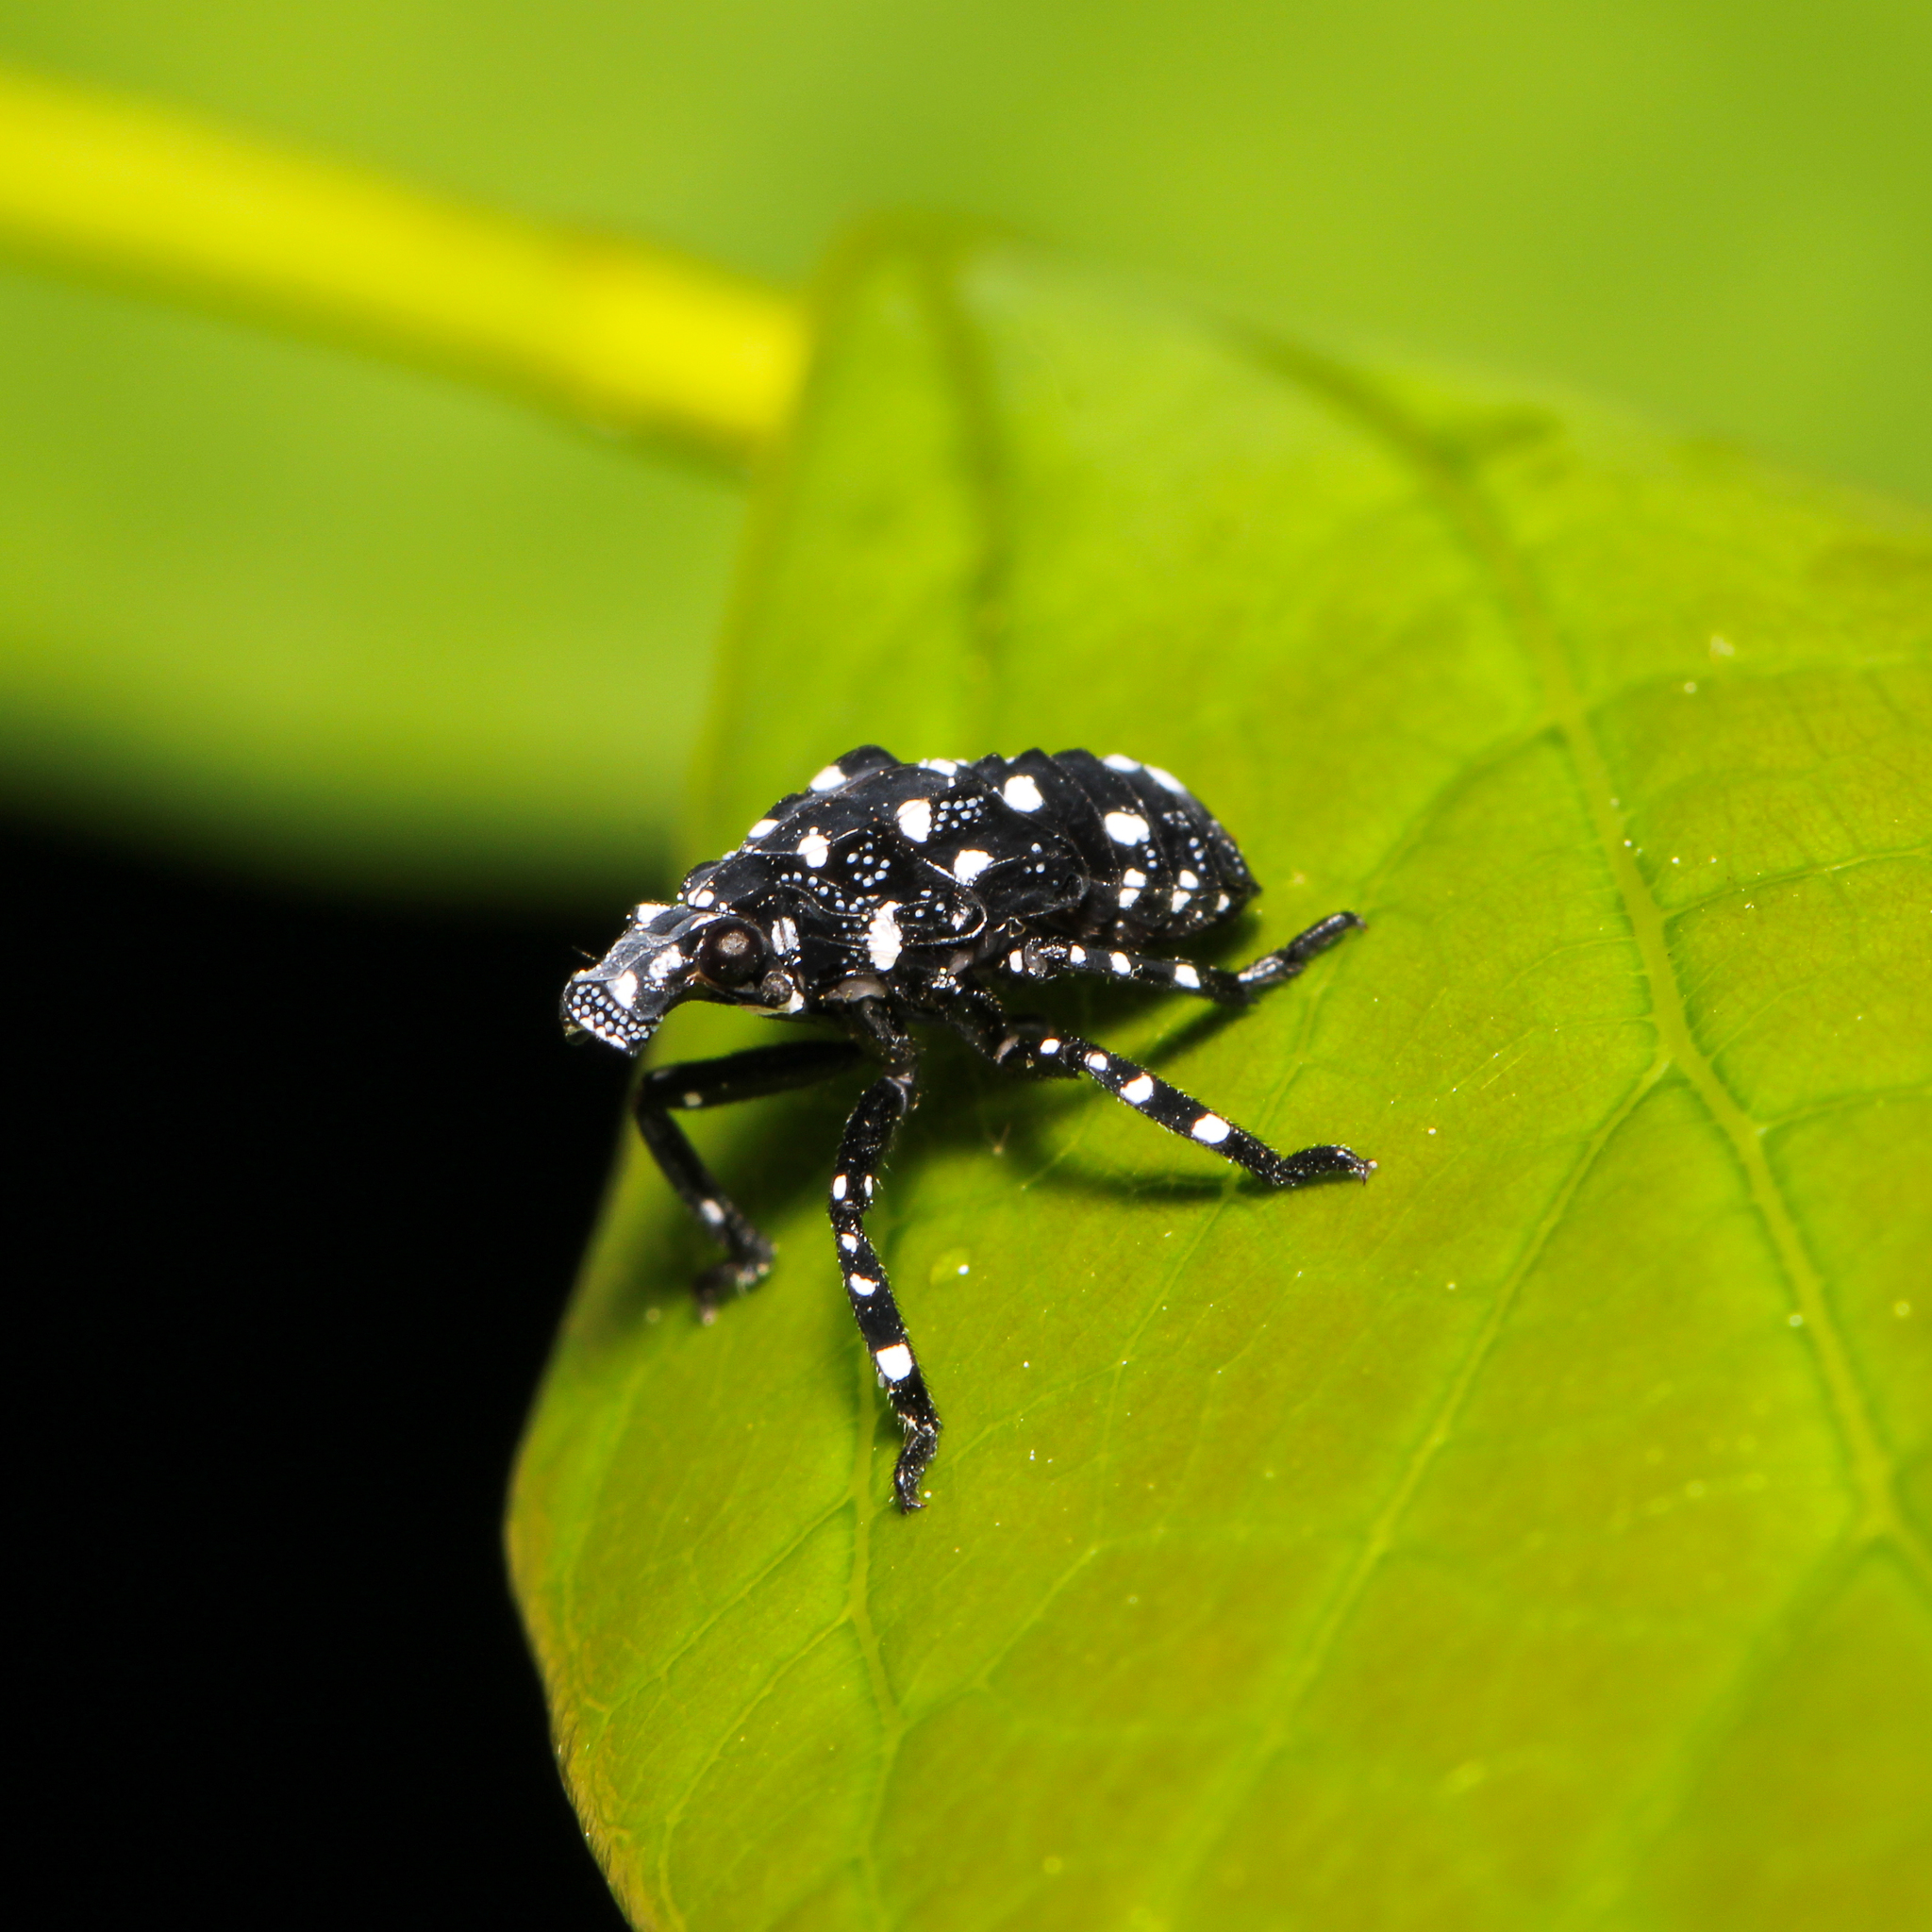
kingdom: Animalia
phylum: Arthropoda
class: Insecta
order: Hemiptera
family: Fulgoridae
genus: Lycorma
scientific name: Lycorma delicatula
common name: Spotted lanternfly
